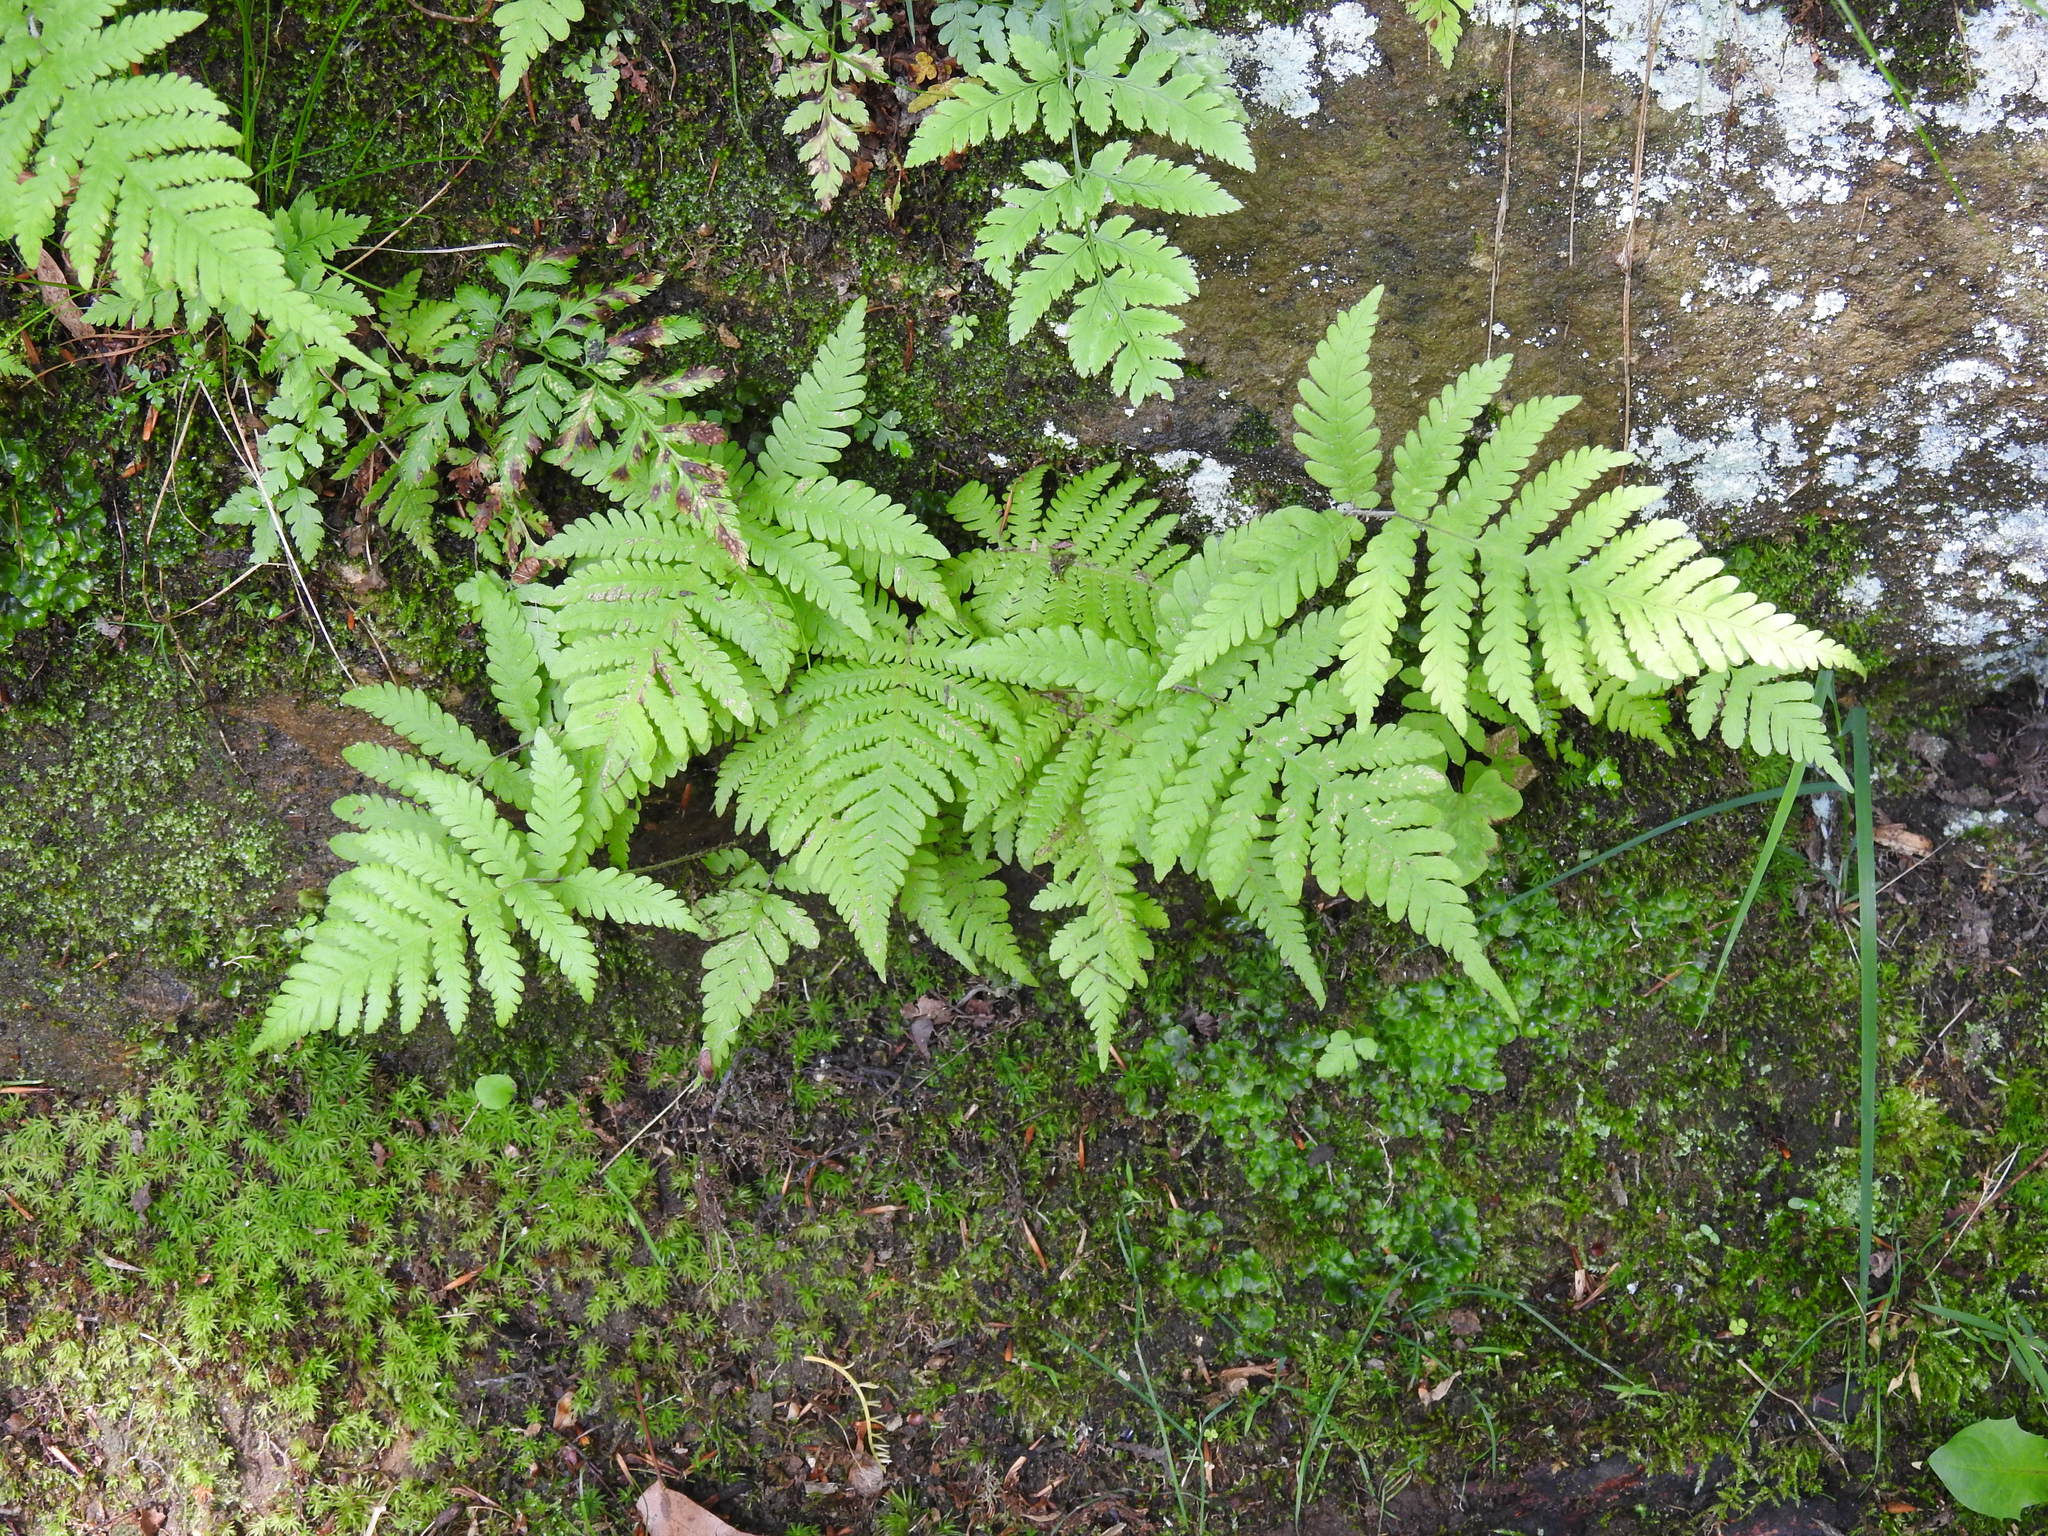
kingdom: Plantae
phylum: Tracheophyta
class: Polypodiopsida
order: Polypodiales
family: Thelypteridaceae
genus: Phegopteris
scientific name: Phegopteris connectilis
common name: Beech fern
